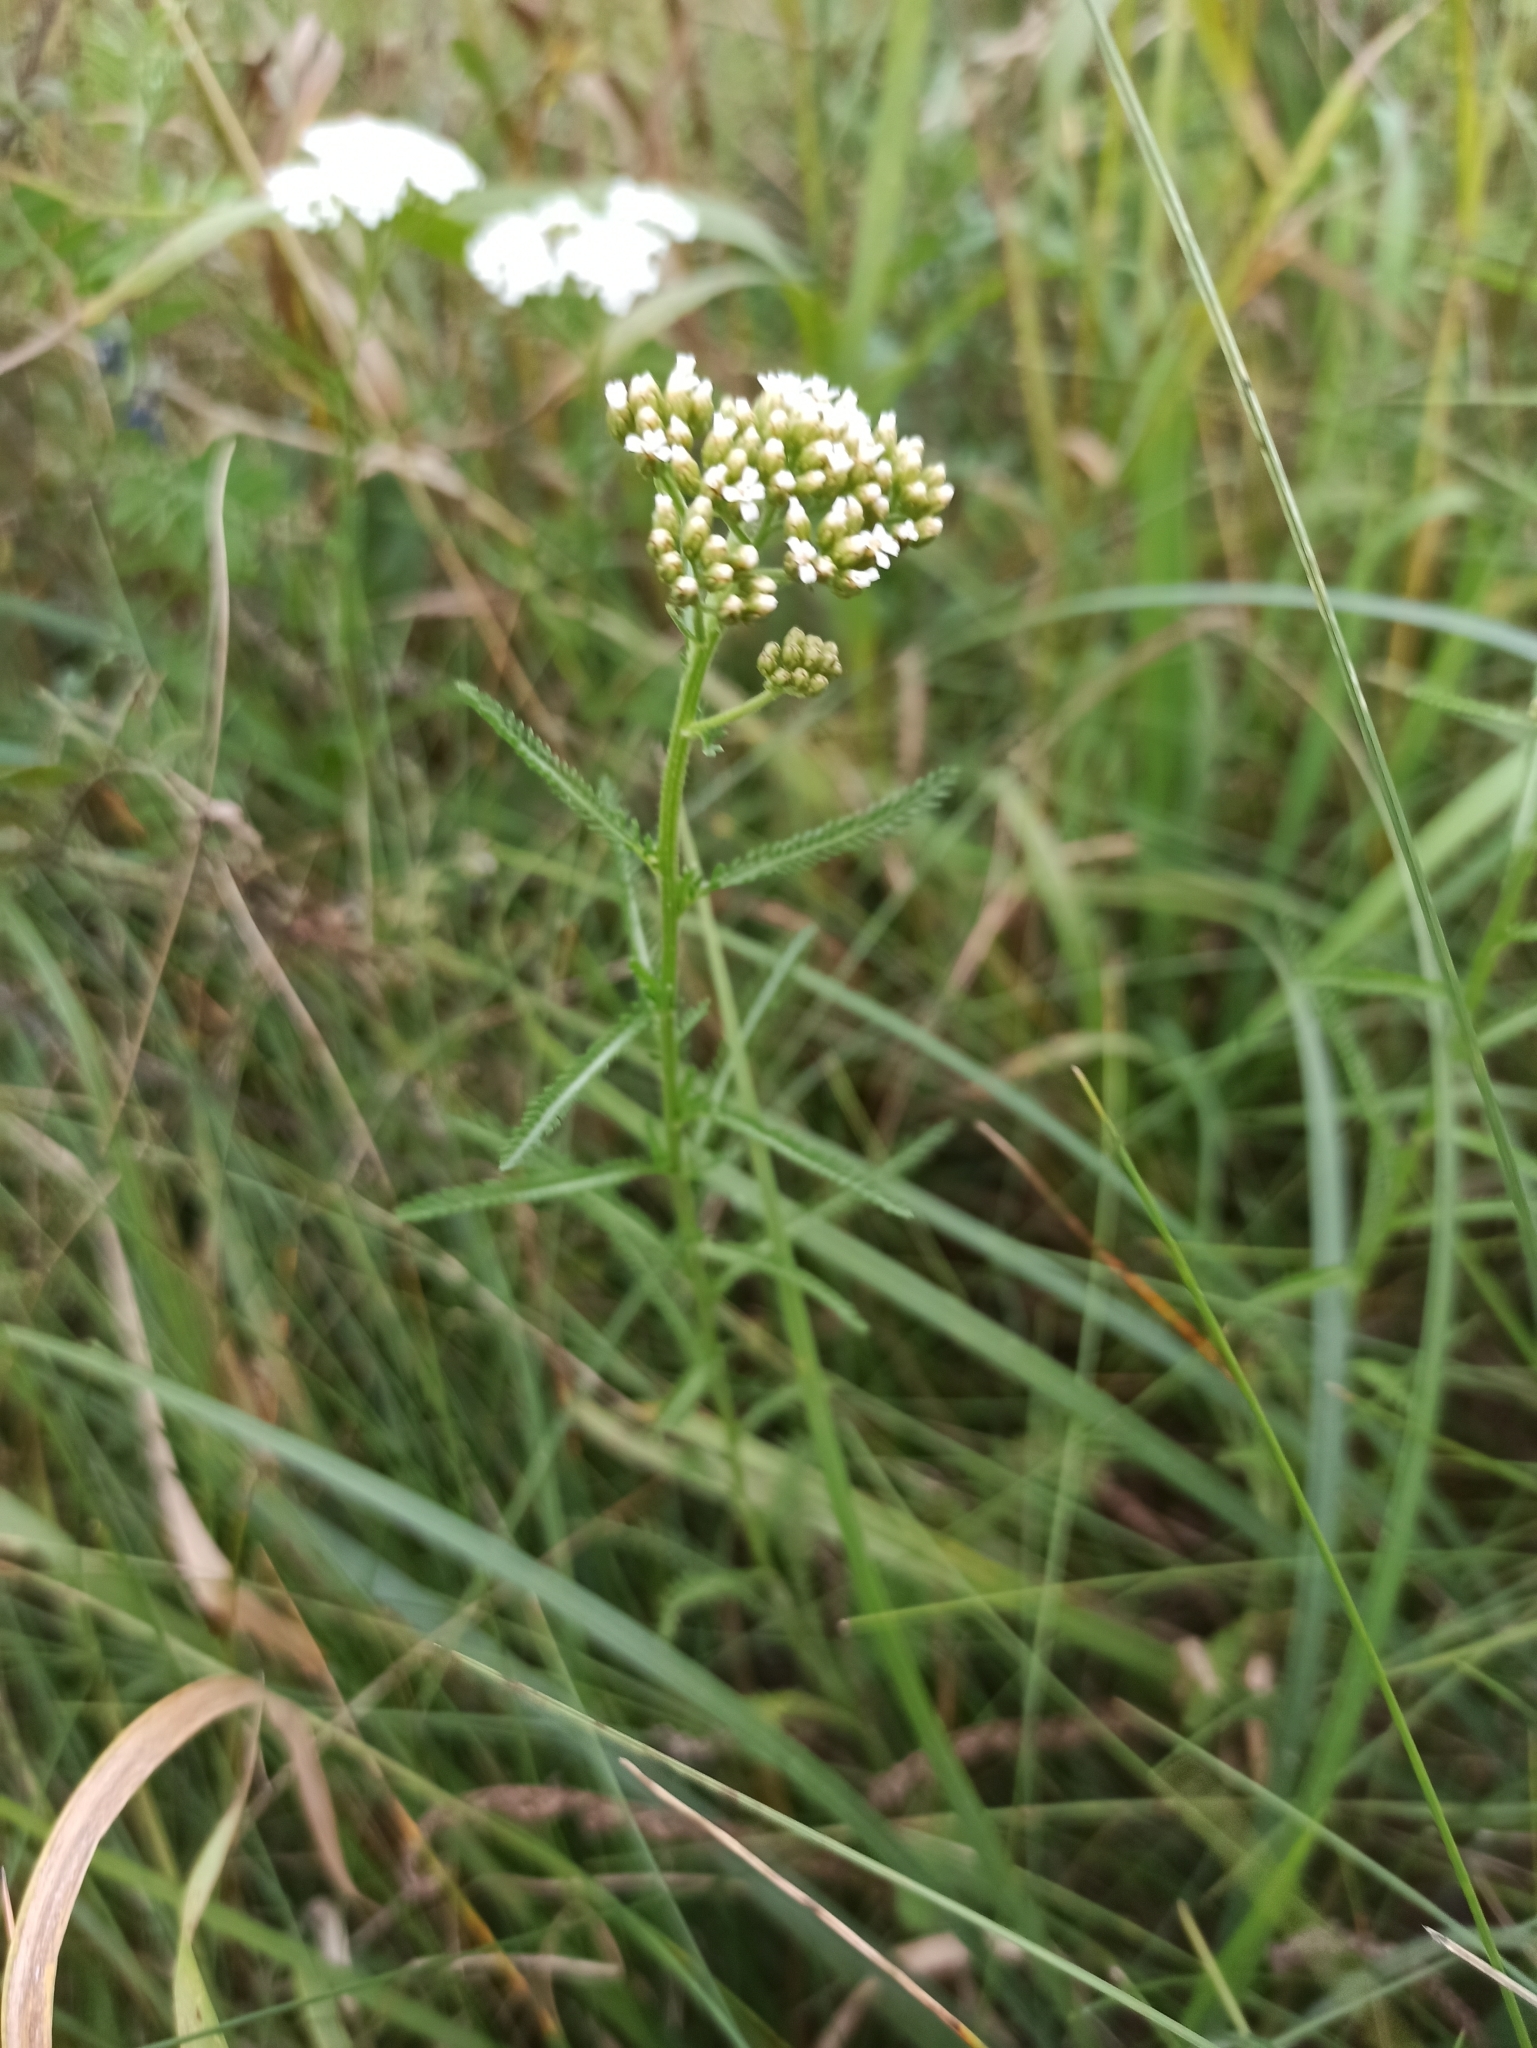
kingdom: Plantae
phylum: Tracheophyta
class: Magnoliopsida
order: Asterales
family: Asteraceae
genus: Achillea
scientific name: Achillea millefolium
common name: Yarrow
